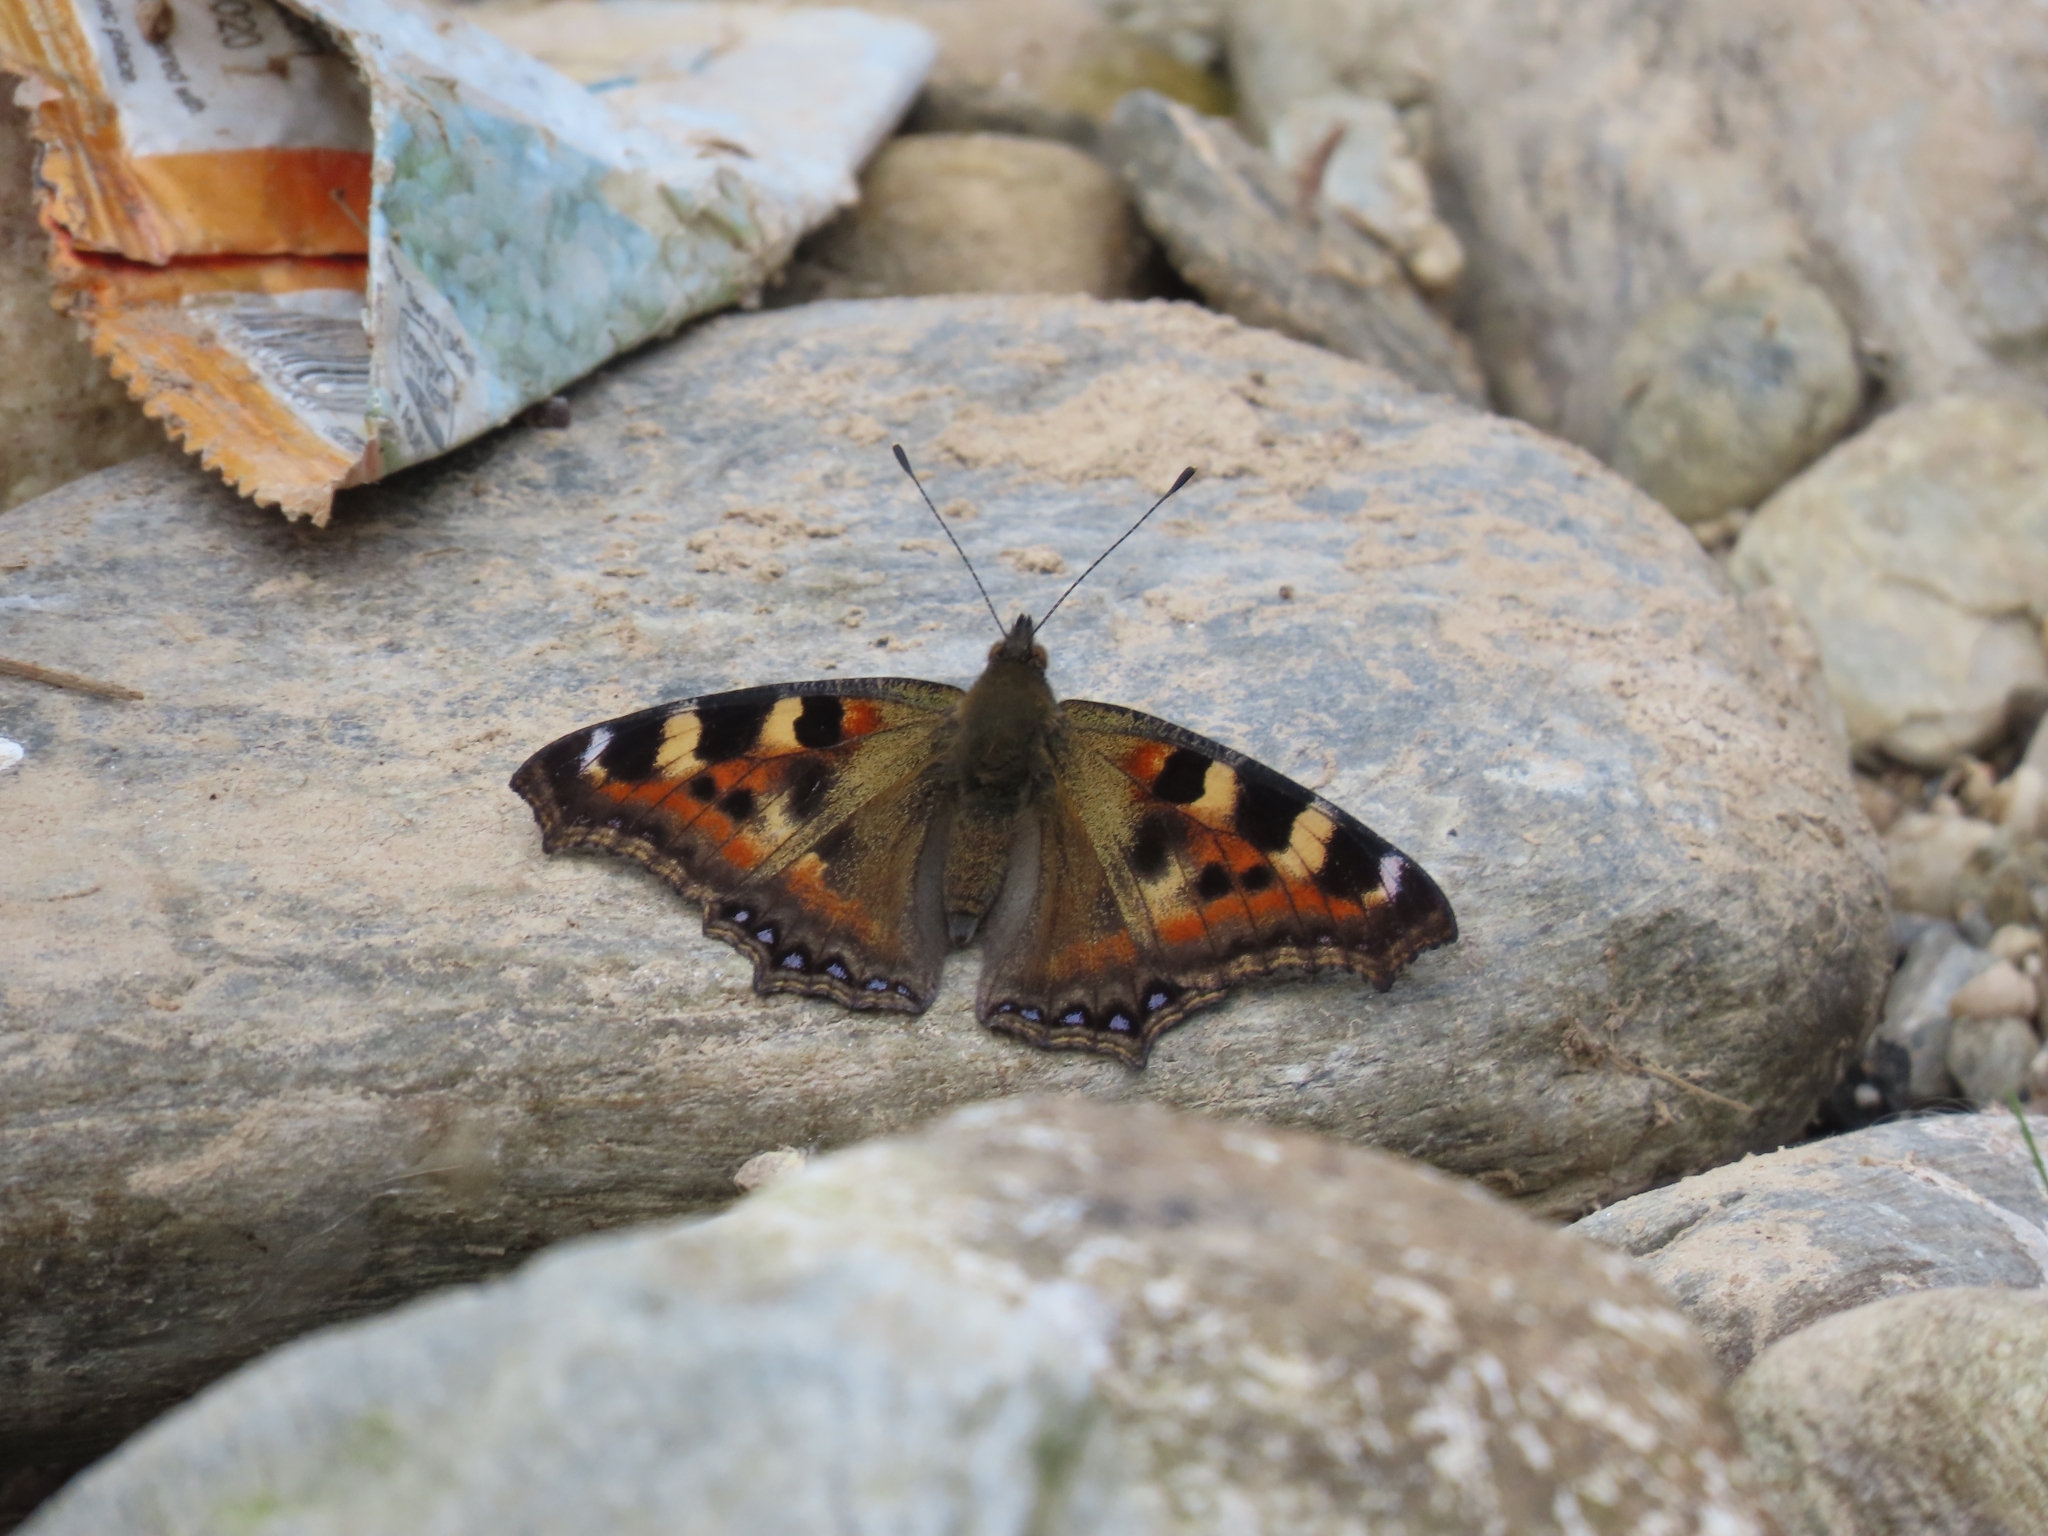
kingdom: Animalia
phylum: Arthropoda
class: Insecta
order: Lepidoptera
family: Nymphalidae
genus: Aglais
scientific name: Aglais caschmirensis
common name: Indian tortoiseshell
